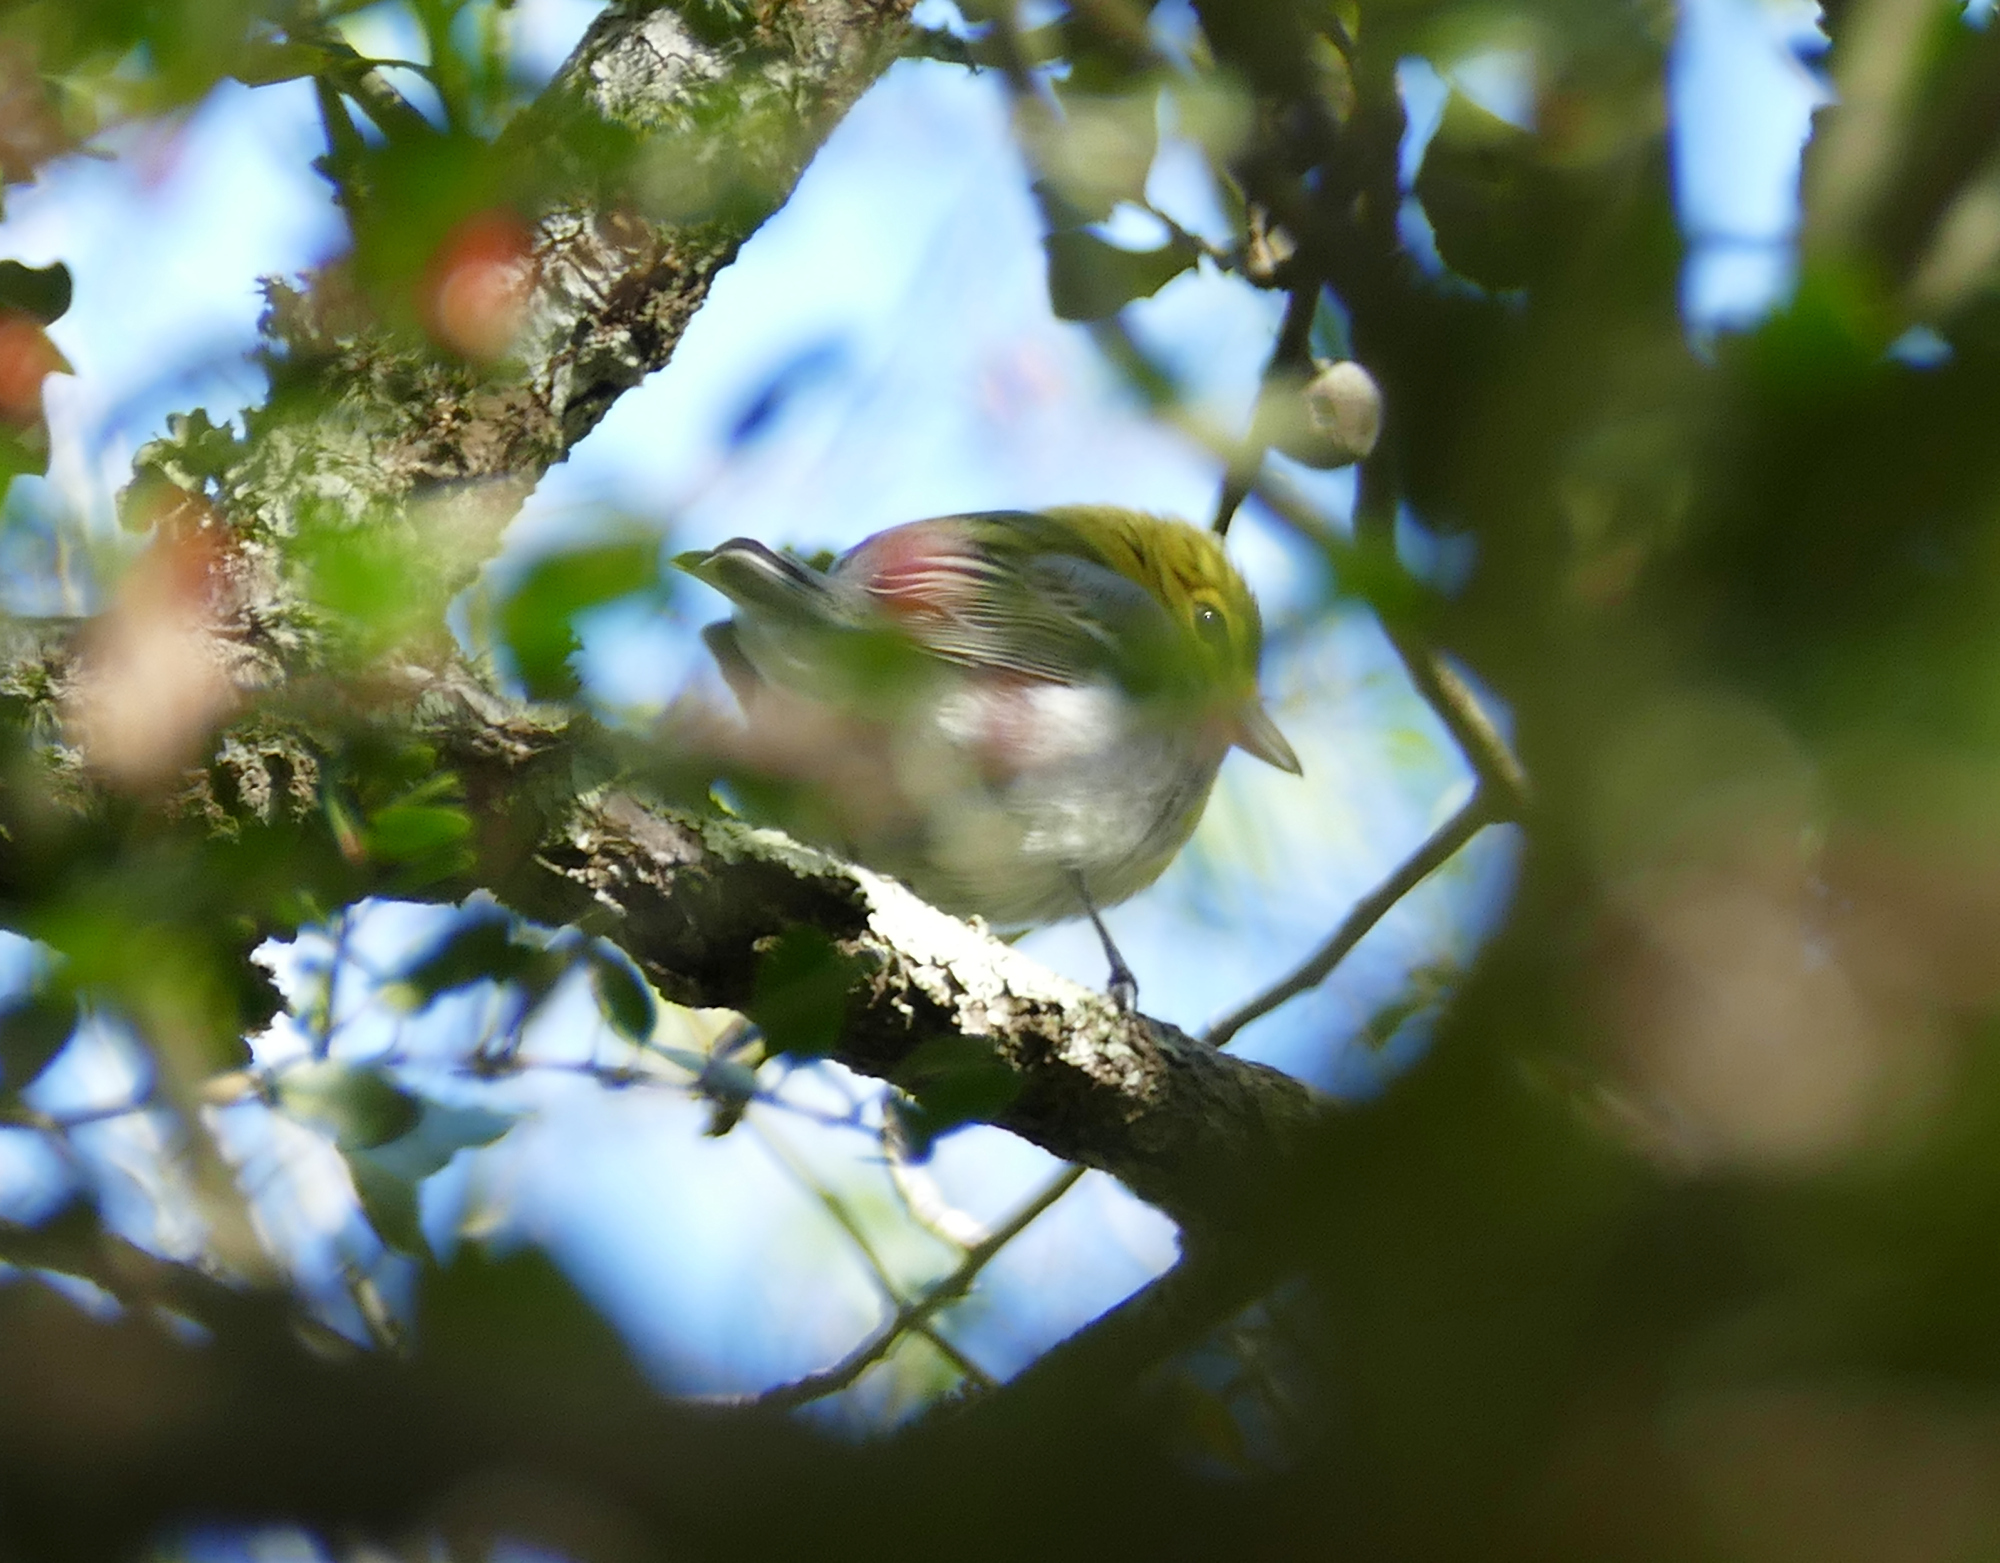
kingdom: Animalia
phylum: Chordata
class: Aves
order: Passeriformes
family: Vireonidae
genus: Vireo
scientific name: Vireo flavifrons
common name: Yellow-throated vireo
